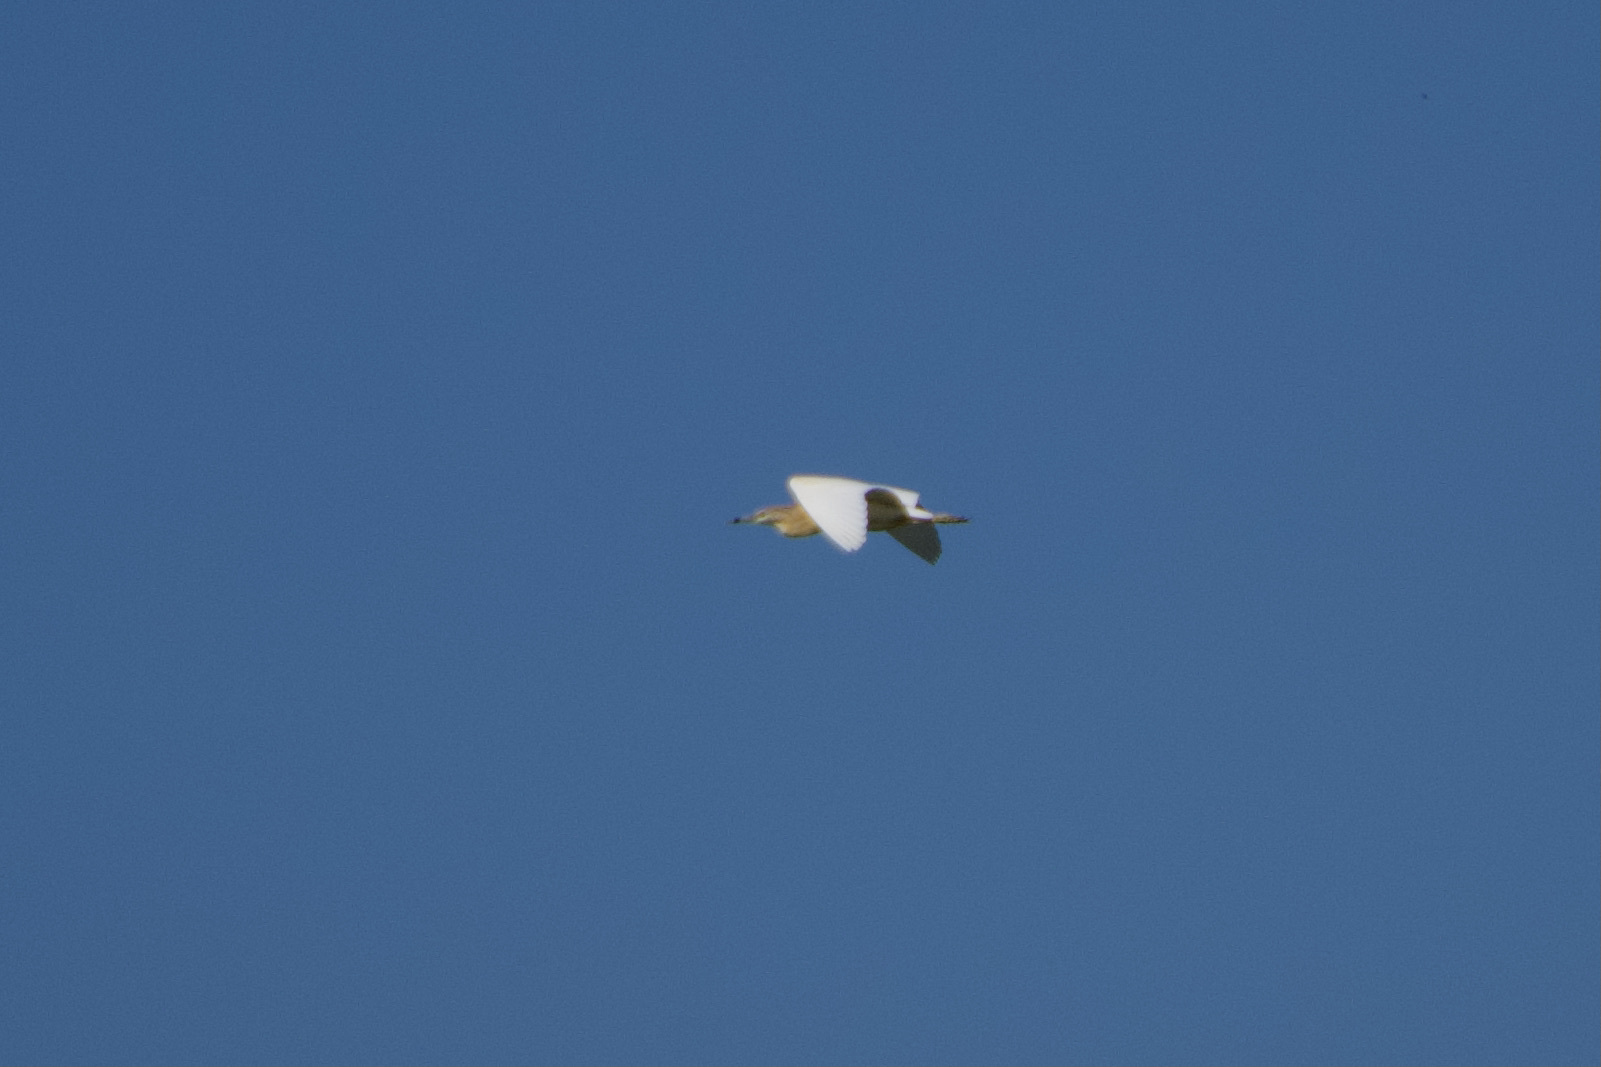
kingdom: Animalia
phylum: Chordata
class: Aves
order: Pelecaniformes
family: Ardeidae
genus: Ardeola
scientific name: Ardeola ralloides
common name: Squacco heron
